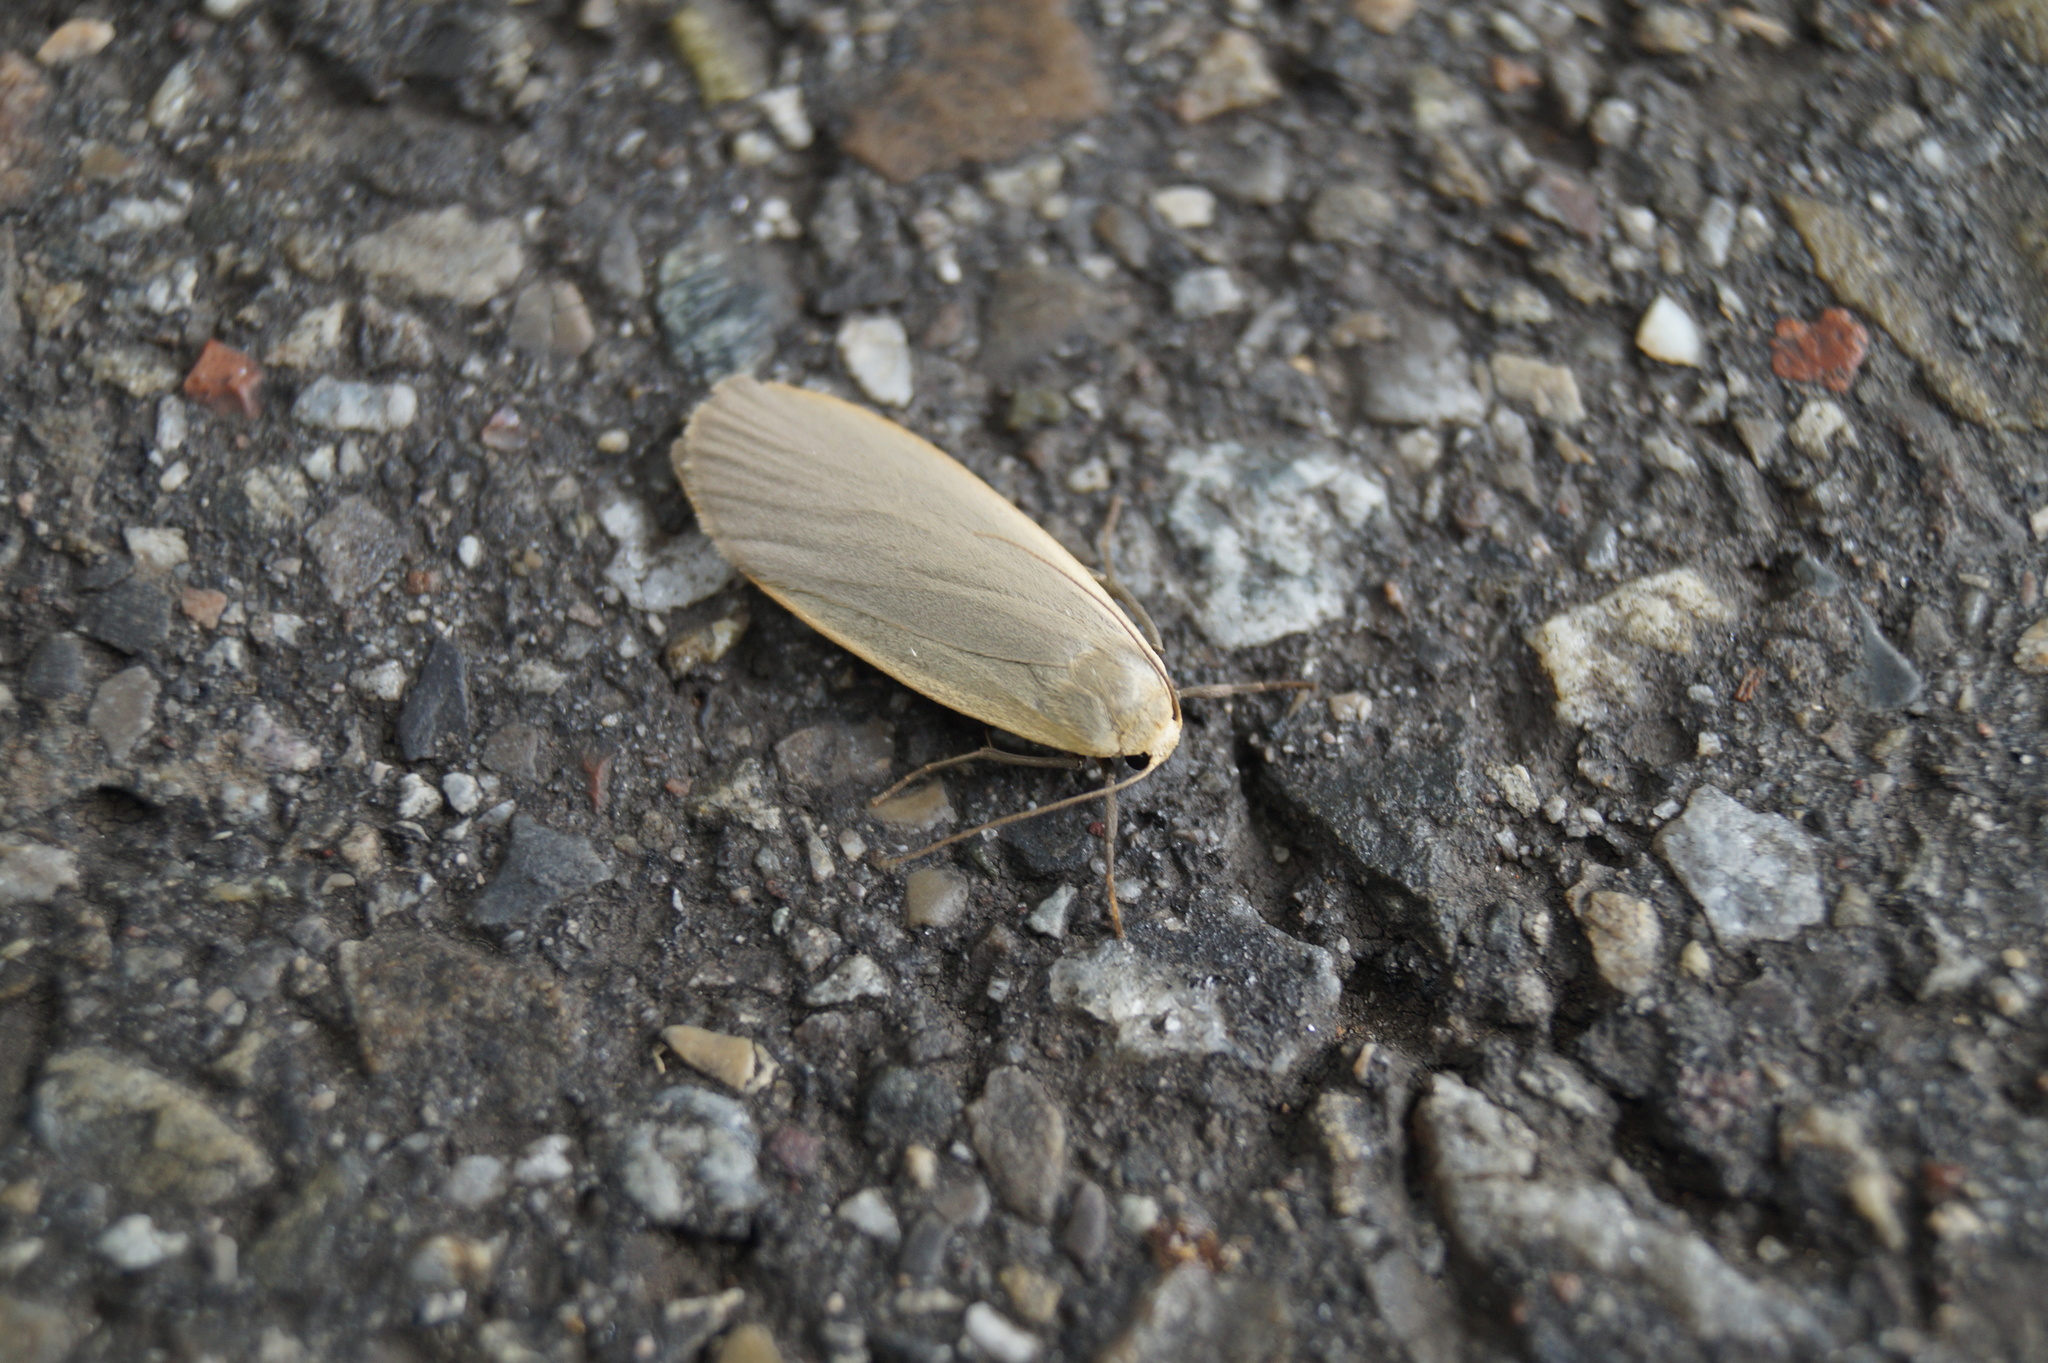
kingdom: Animalia
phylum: Arthropoda
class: Insecta
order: Lepidoptera
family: Erebidae
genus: Collita
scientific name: Collita griseola
